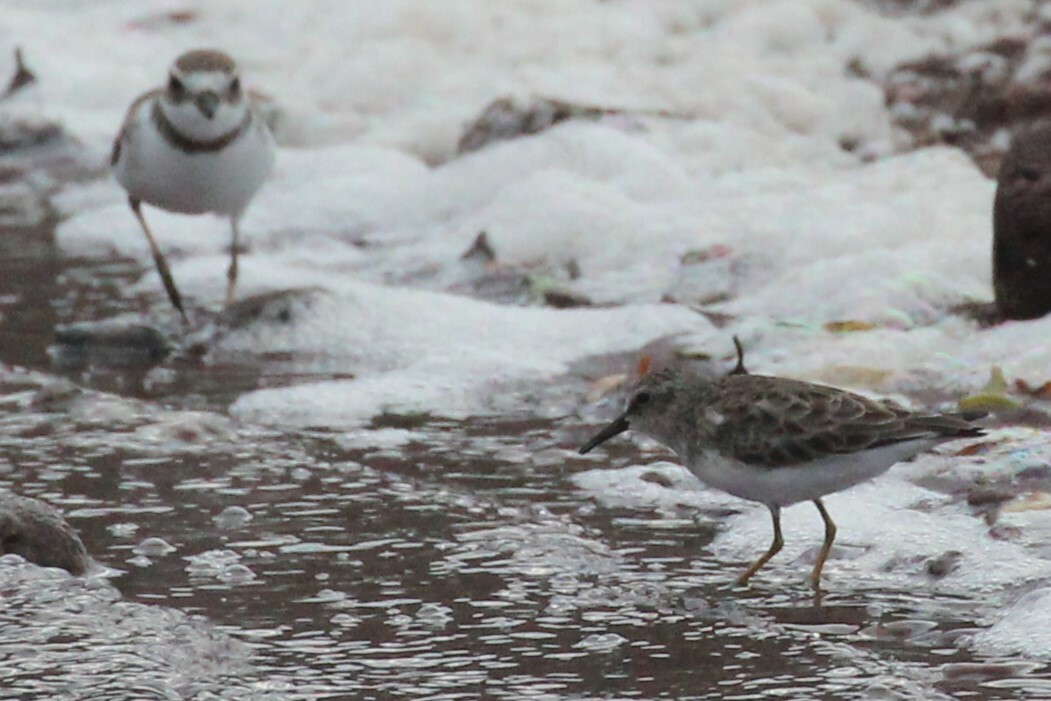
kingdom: Animalia
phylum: Chordata
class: Aves
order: Charadriiformes
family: Scolopacidae
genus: Calidris
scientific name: Calidris minutilla
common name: Least sandpiper
